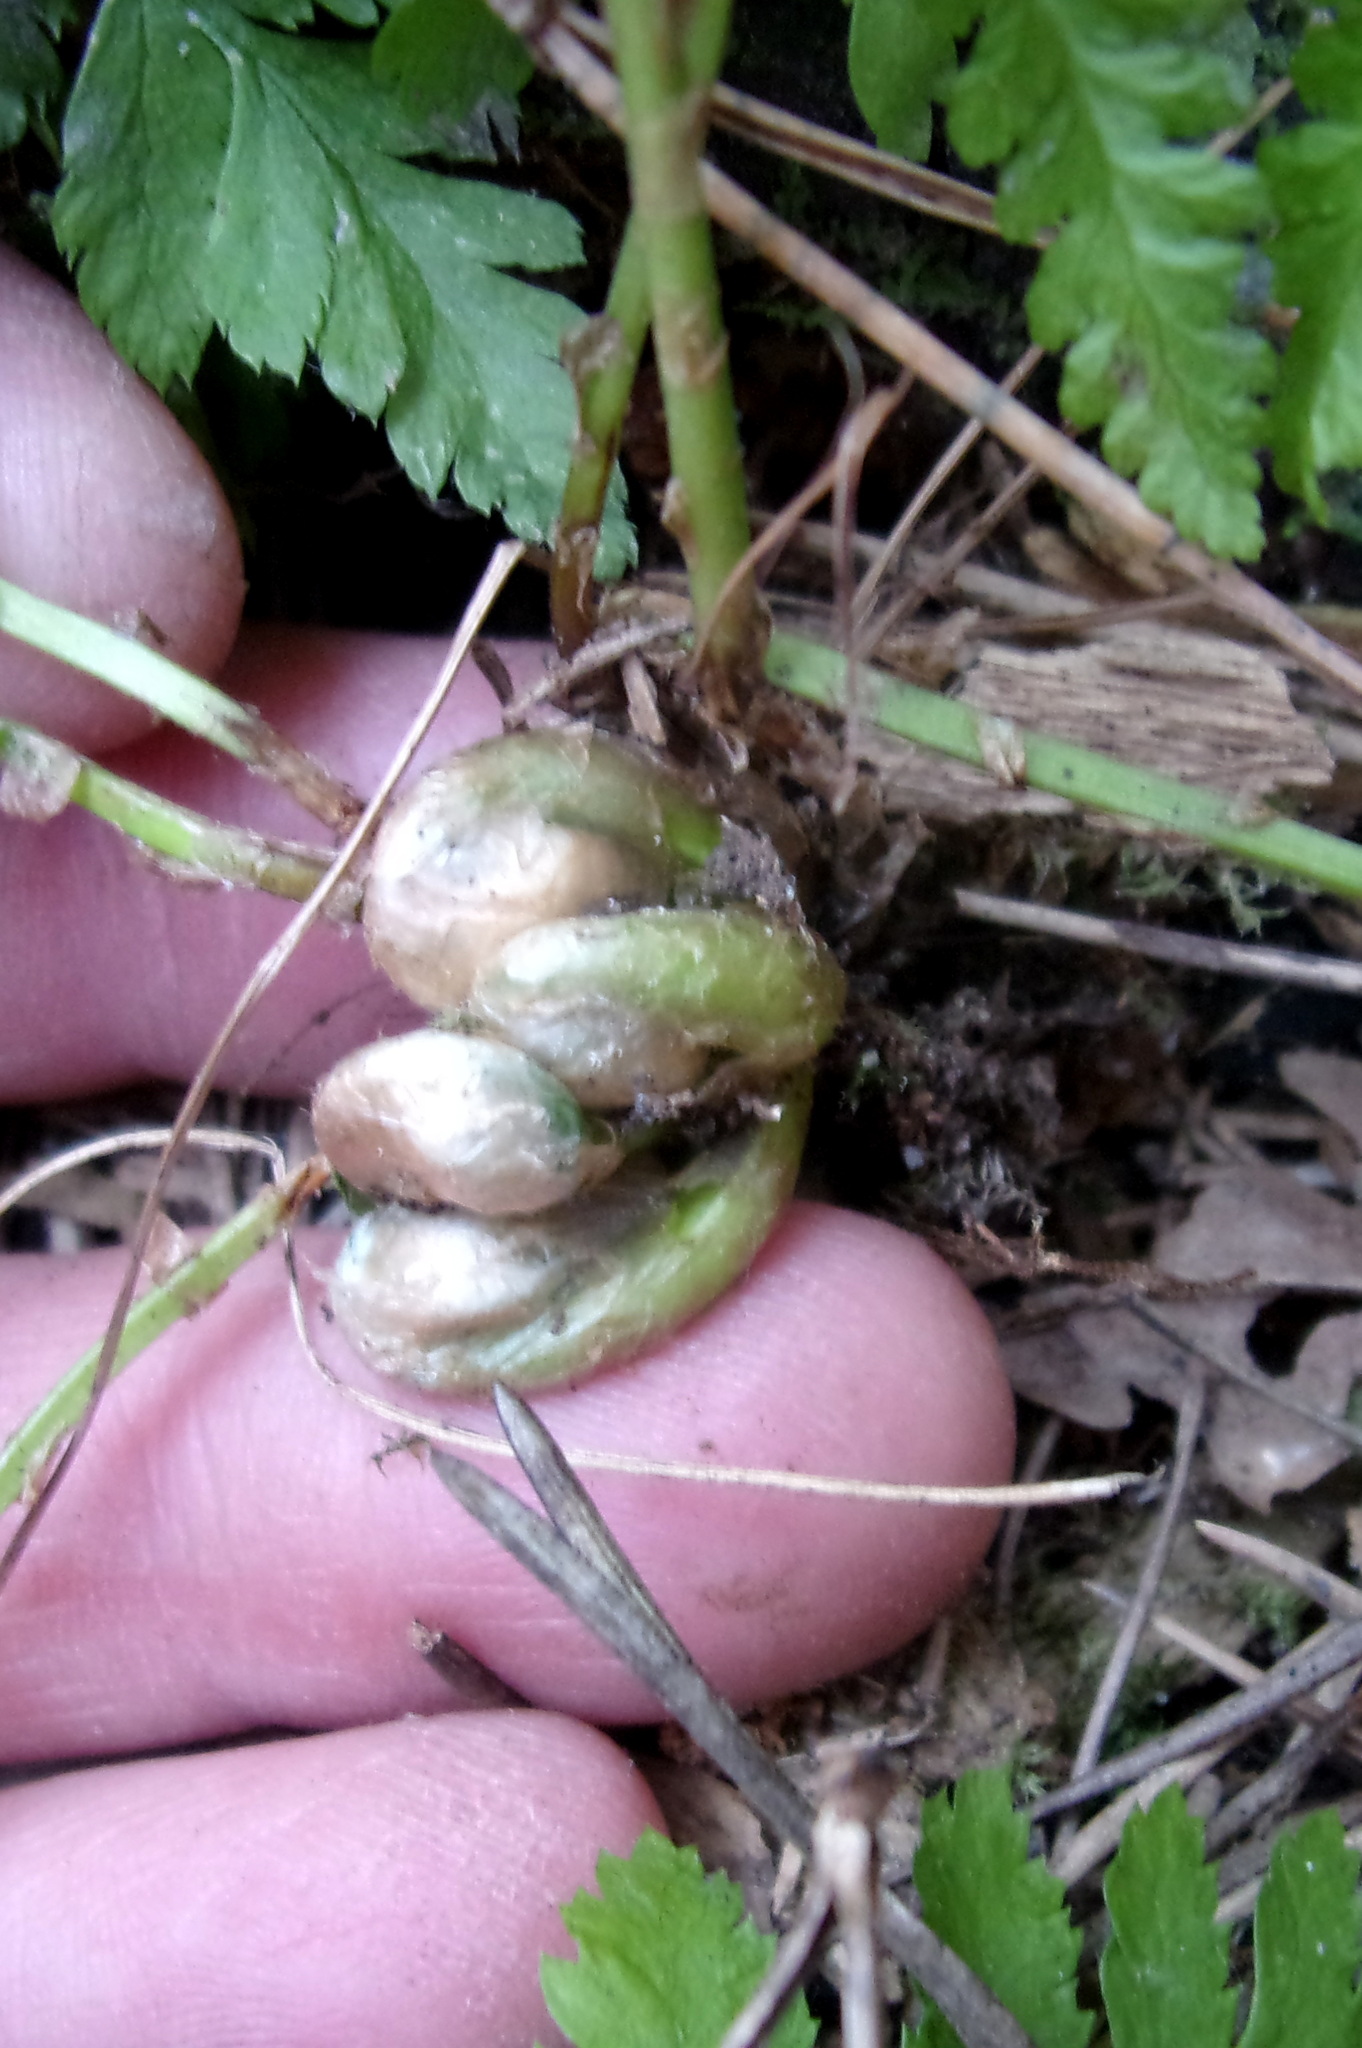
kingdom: Plantae
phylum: Tracheophyta
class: Polypodiopsida
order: Polypodiales
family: Dryopteridaceae
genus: Dryopteris
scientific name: Dryopteris carthusiana
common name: Narrow buckler-fern
